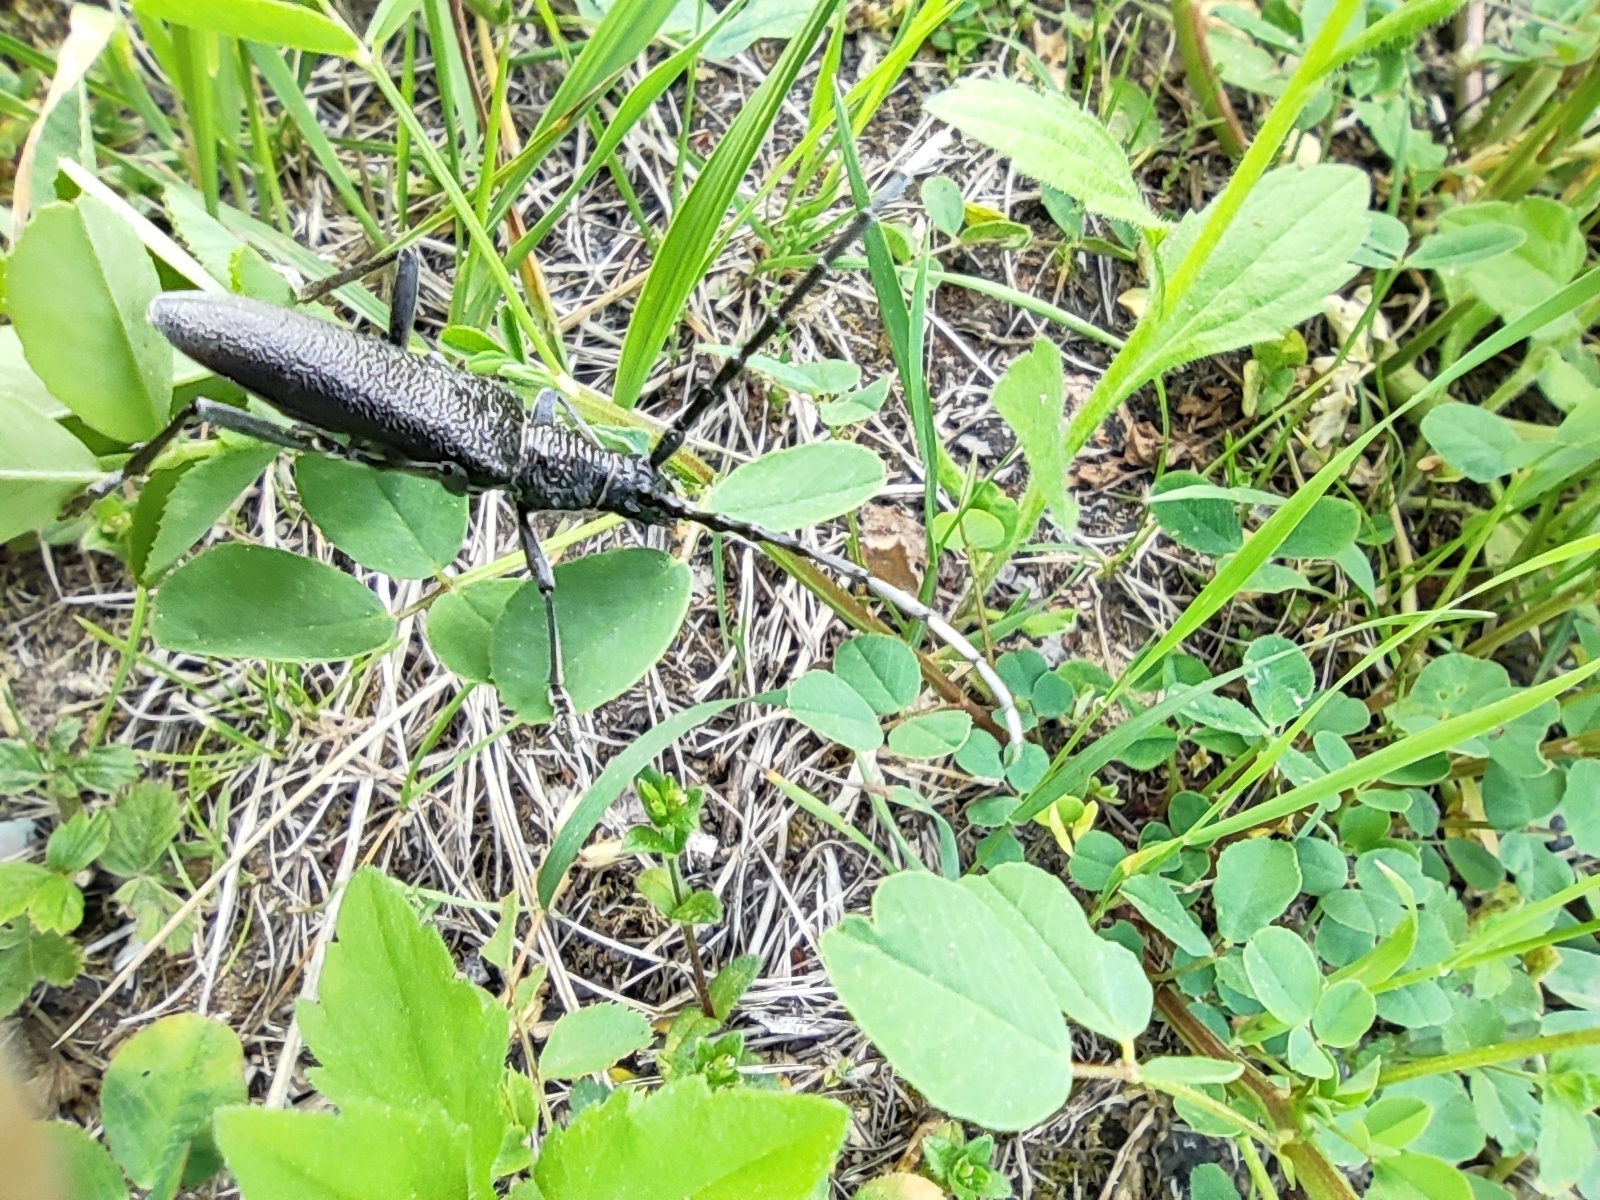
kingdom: Animalia
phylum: Arthropoda
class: Insecta
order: Coleoptera
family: Cerambycidae
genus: Cerambyx
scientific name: Cerambyx scopolii
